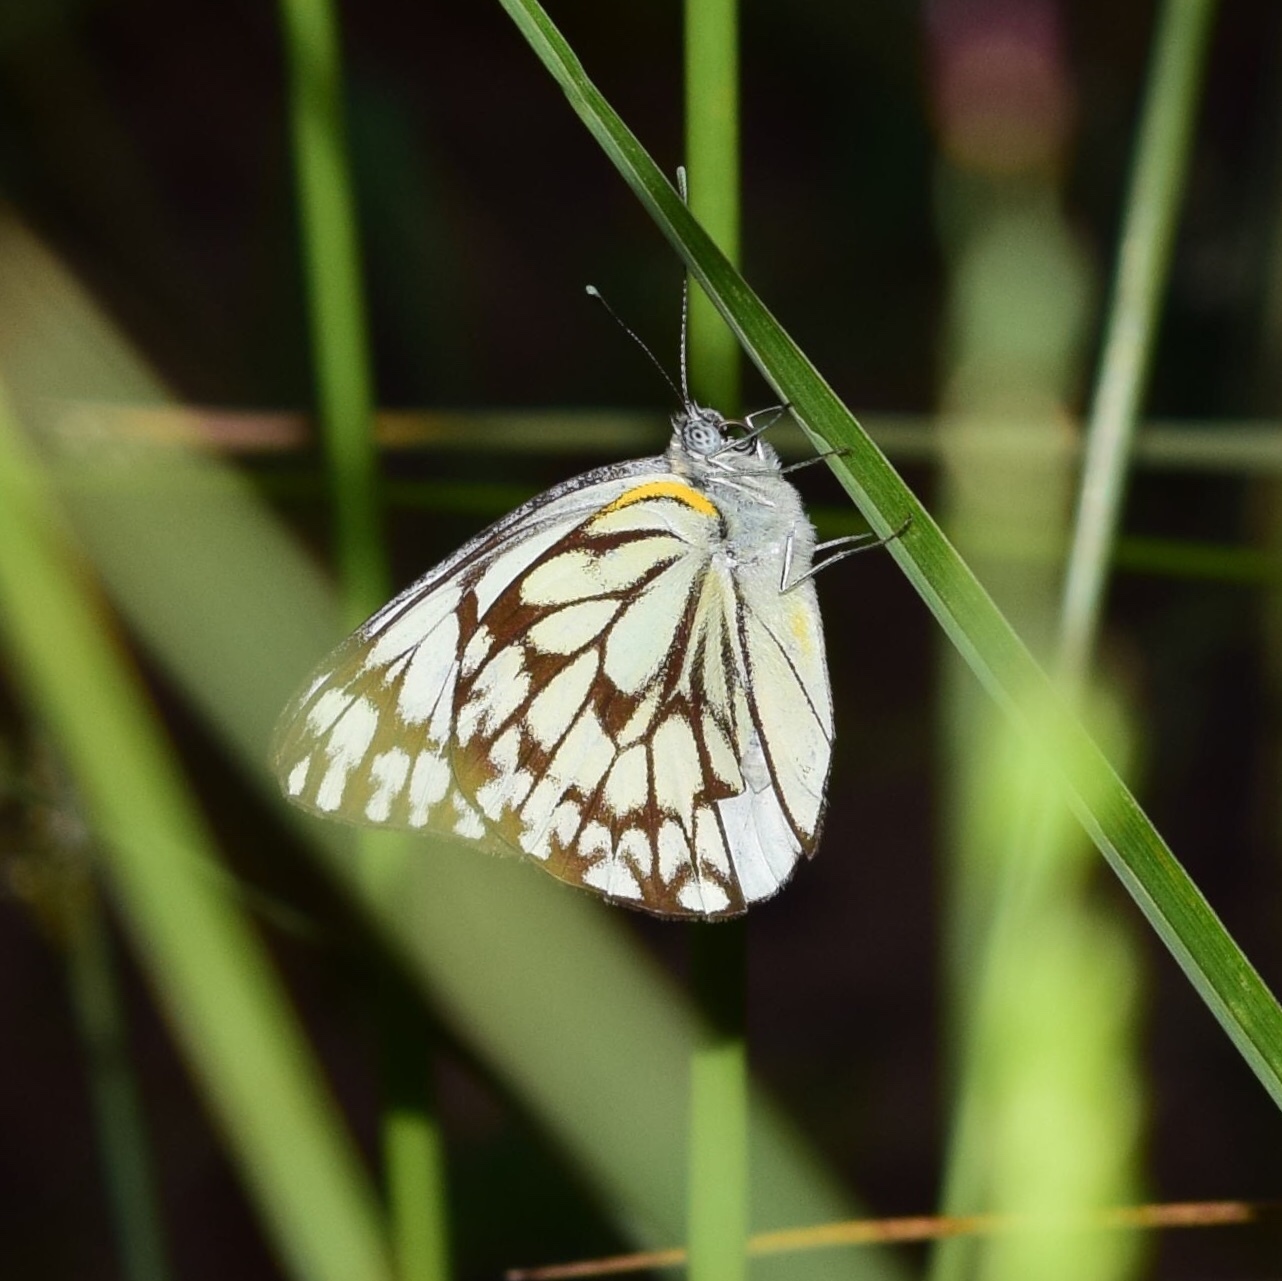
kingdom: Animalia
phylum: Arthropoda
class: Insecta
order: Lepidoptera
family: Pieridae
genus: Belenois
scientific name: Belenois gidica
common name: Pointed caper white
